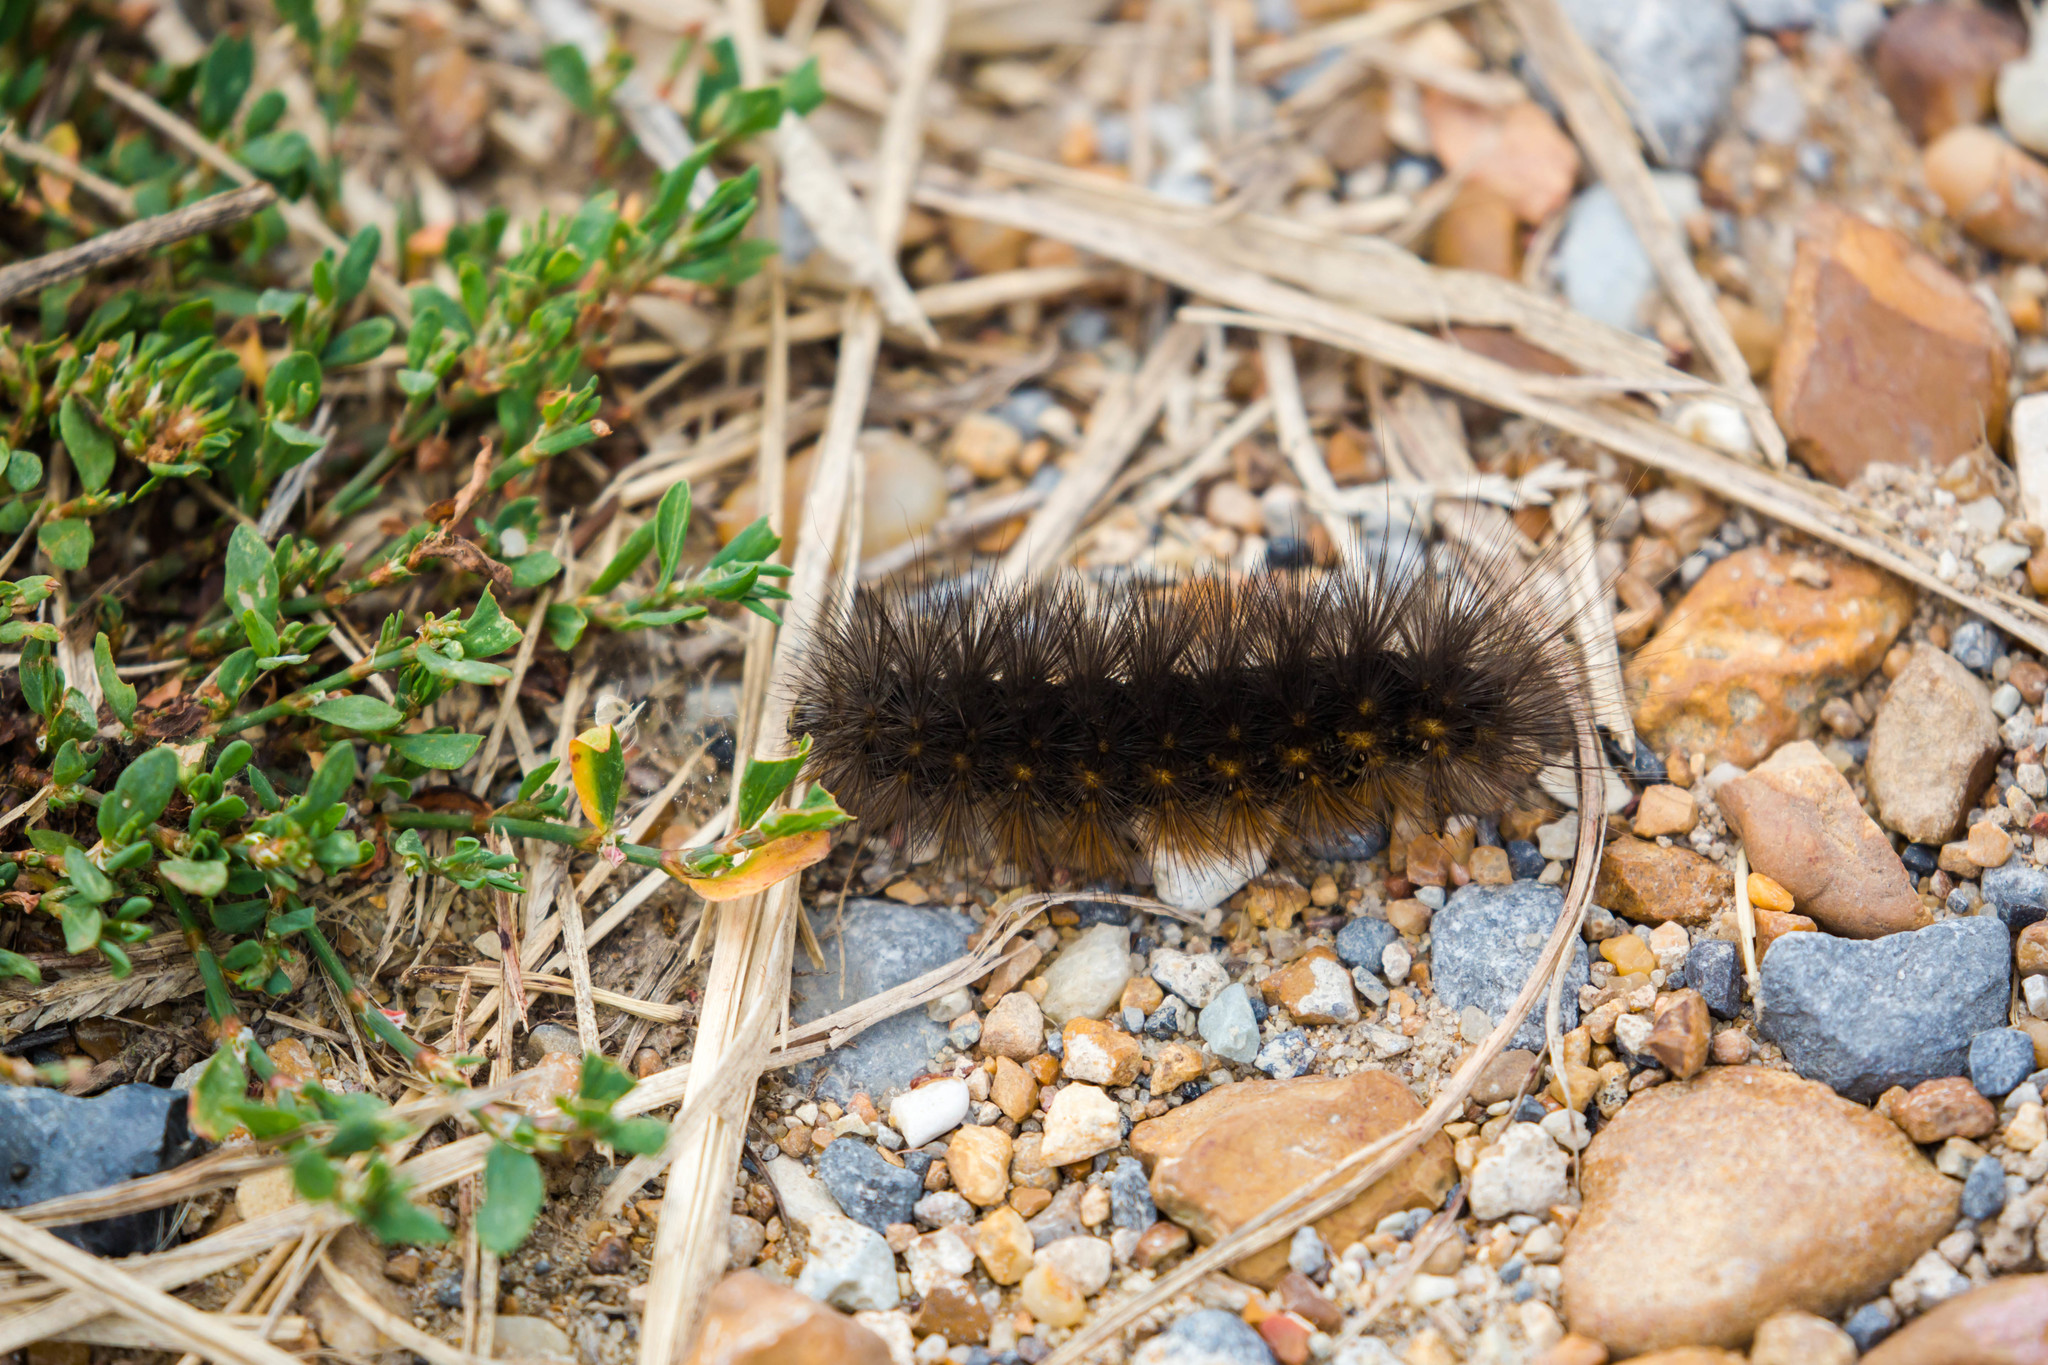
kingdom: Animalia
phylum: Arthropoda
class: Insecta
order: Lepidoptera
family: Erebidae
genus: Estigmene
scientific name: Estigmene acrea
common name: Salt marsh moth
